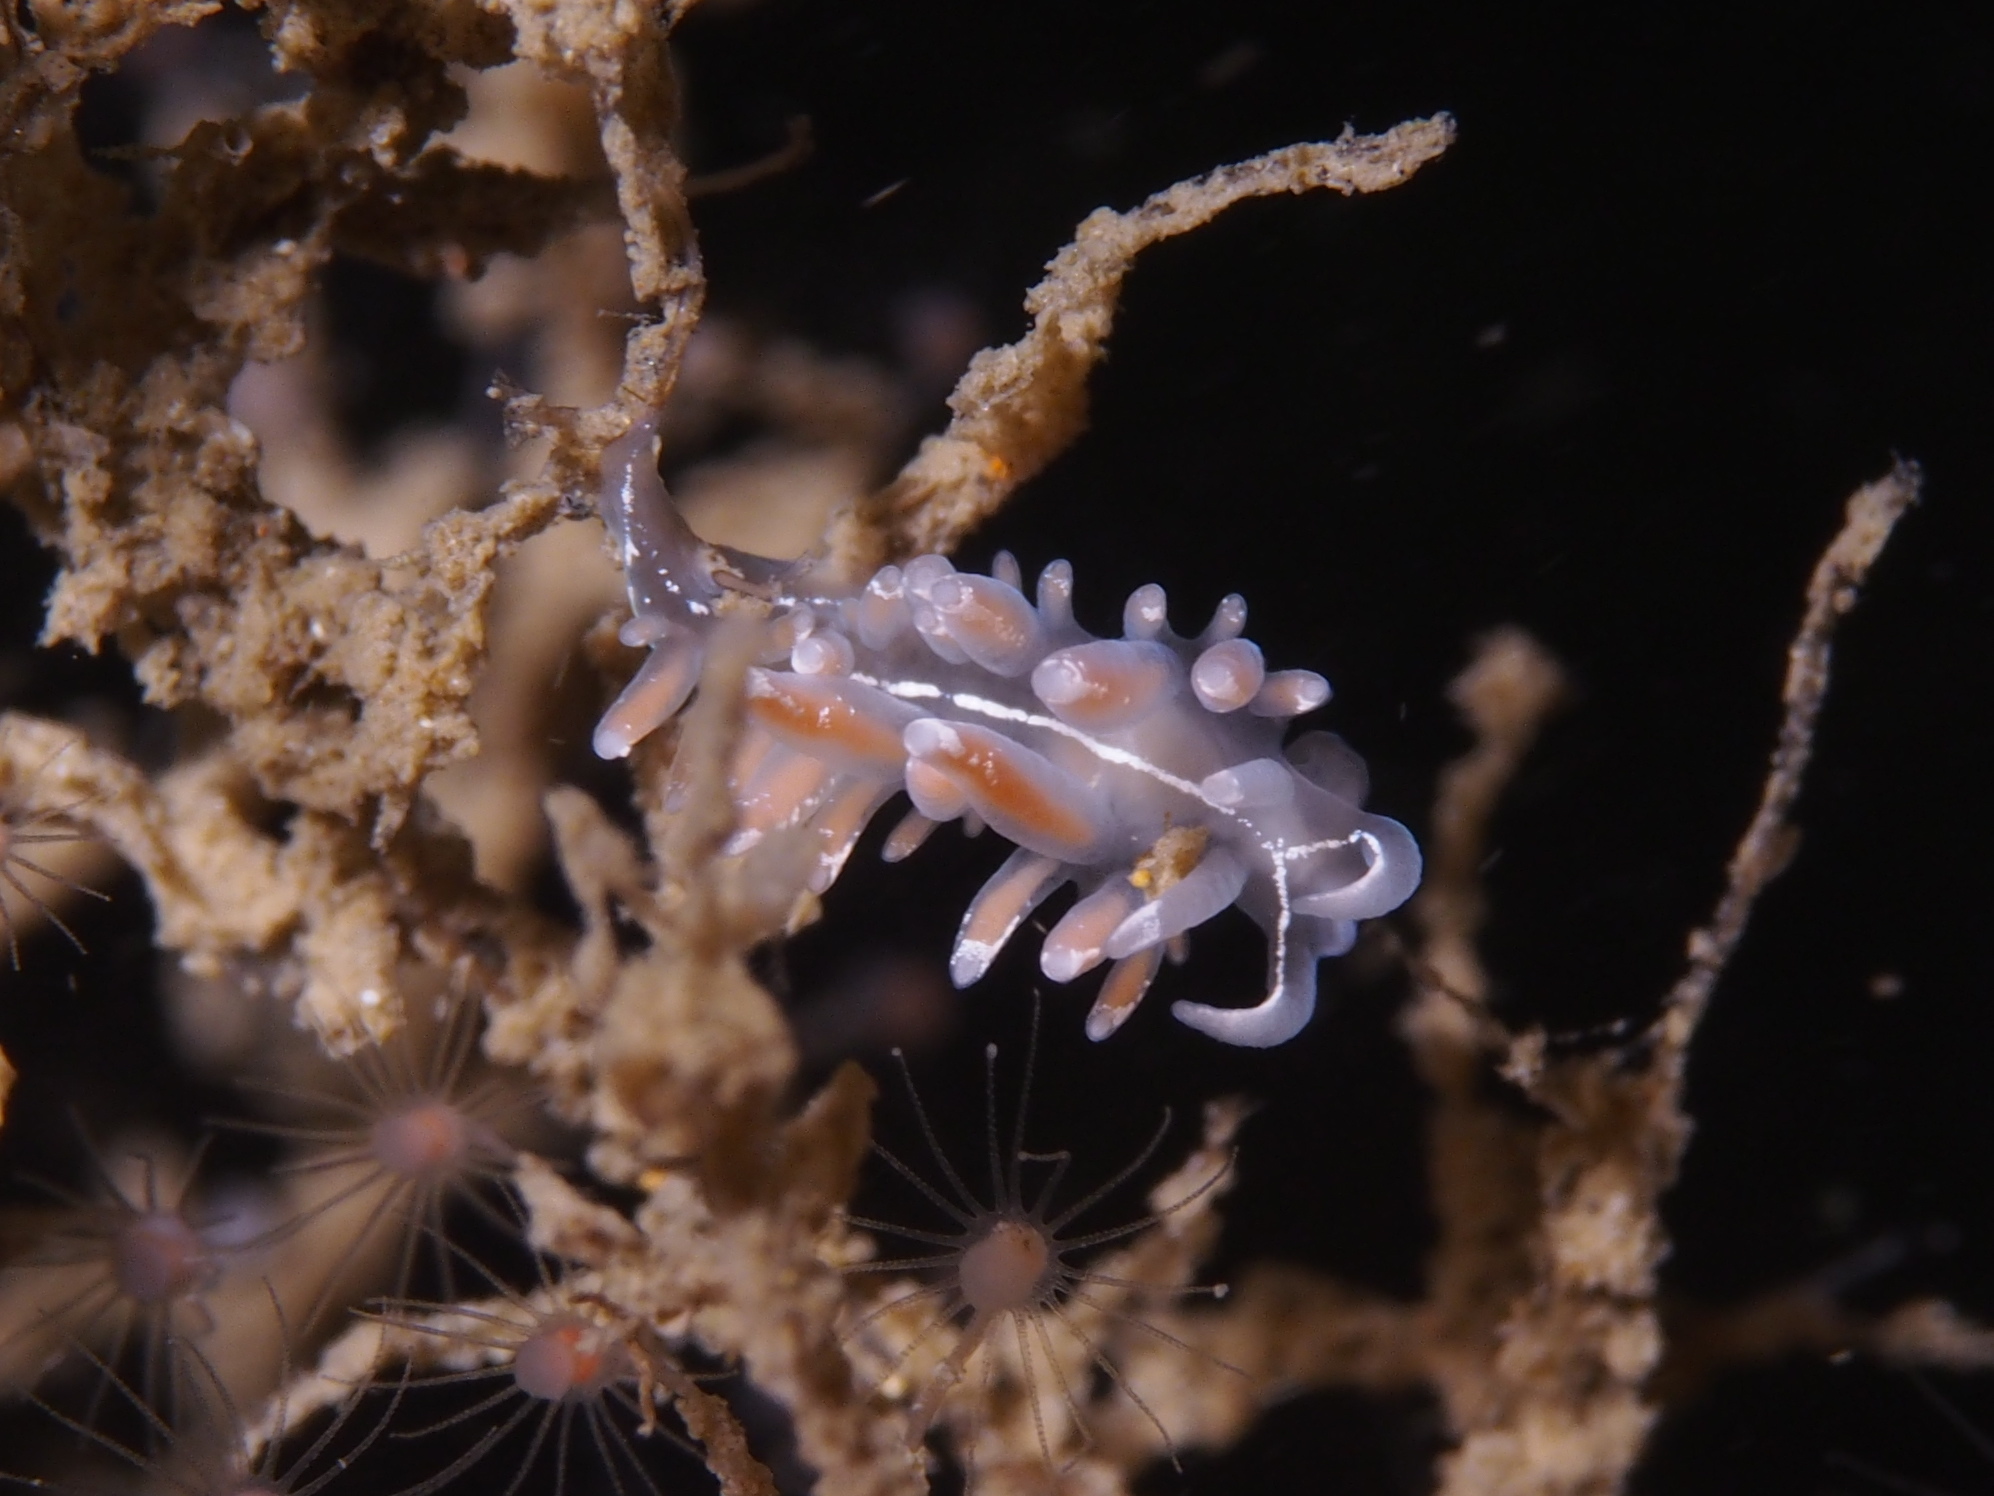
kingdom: Animalia
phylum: Mollusca
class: Gastropoda
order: Nudibranchia
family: Coryphellidae
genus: Coryphella
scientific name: Coryphella lineata
